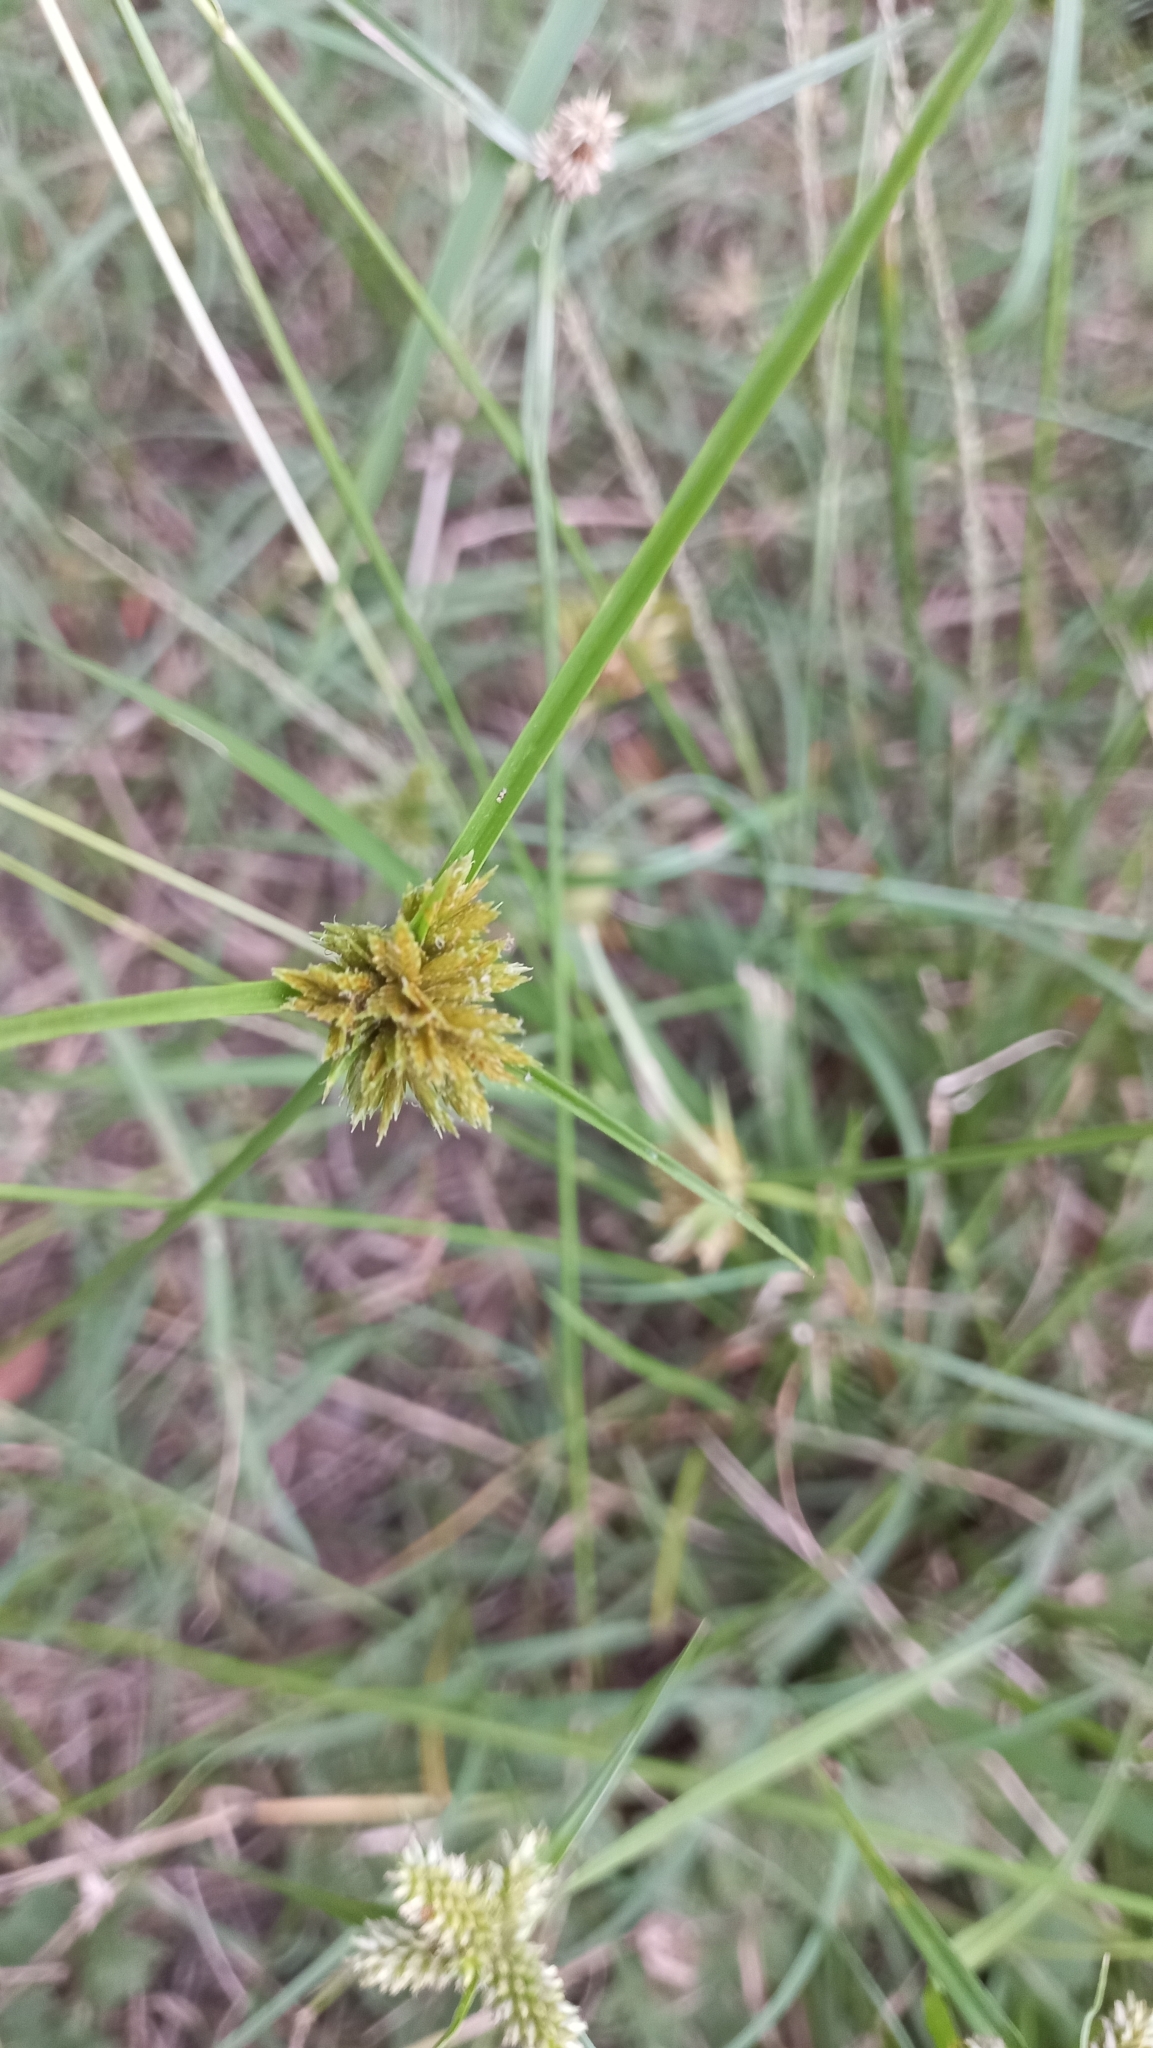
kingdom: Plantae
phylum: Tracheophyta
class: Liliopsida
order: Poales
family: Cyperaceae
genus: Cyperus
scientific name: Cyperus polystachyos
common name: Bunchy flat sedge
